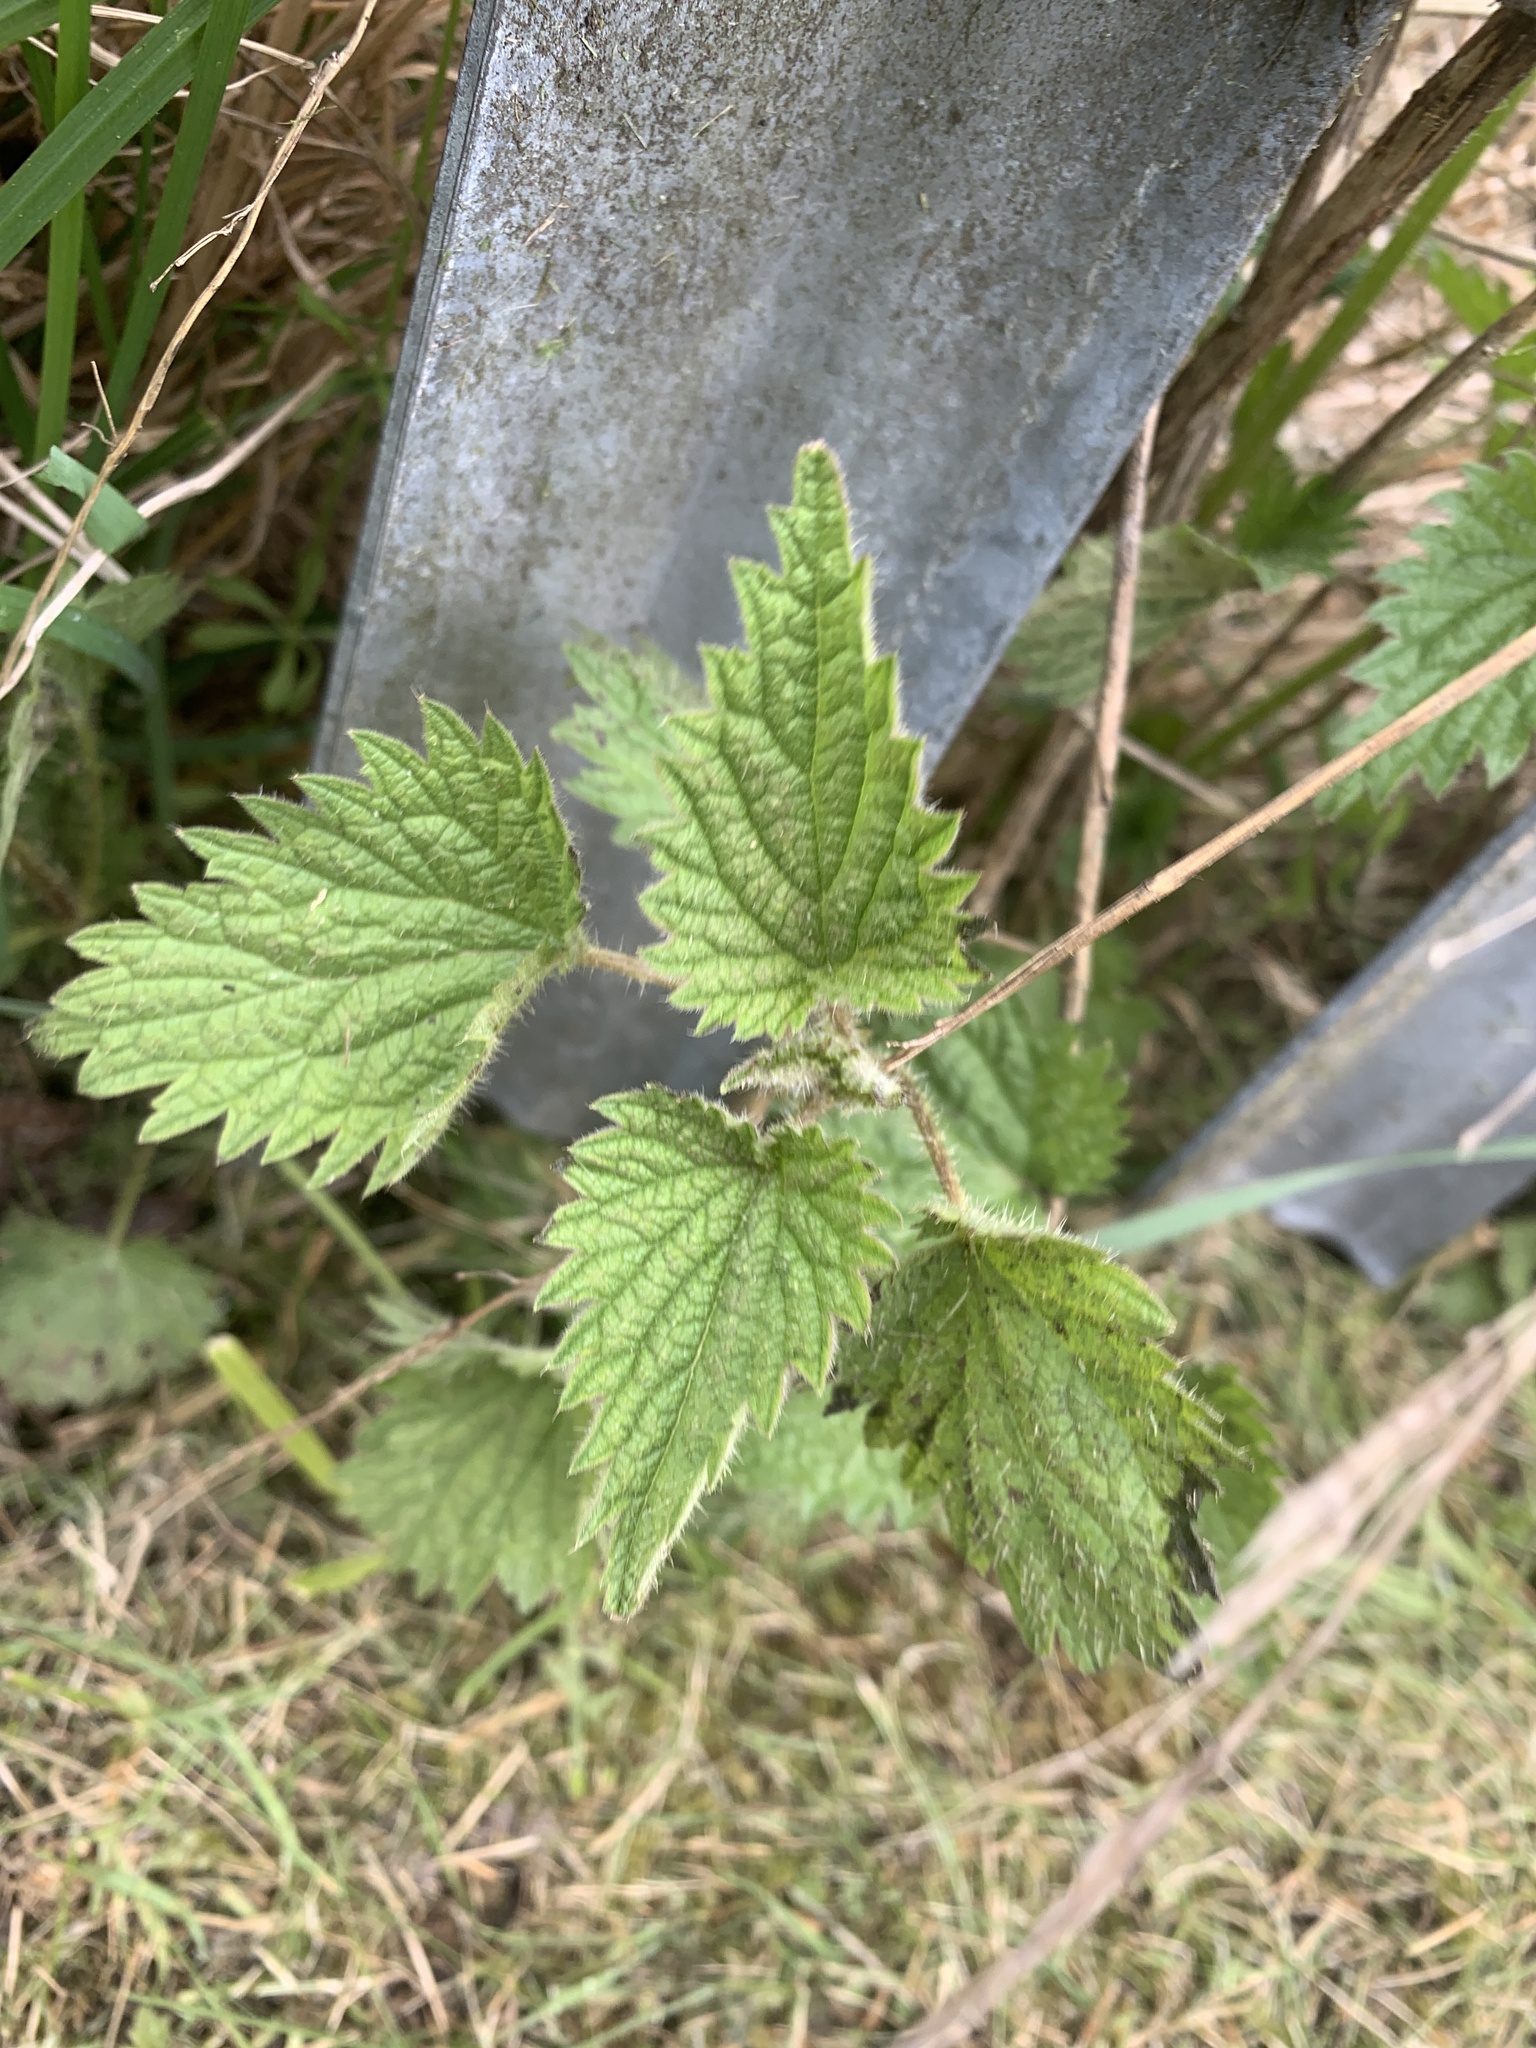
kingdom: Plantae
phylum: Tracheophyta
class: Magnoliopsida
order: Rosales
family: Urticaceae
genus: Urtica
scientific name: Urtica dioica
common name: Common nettle
